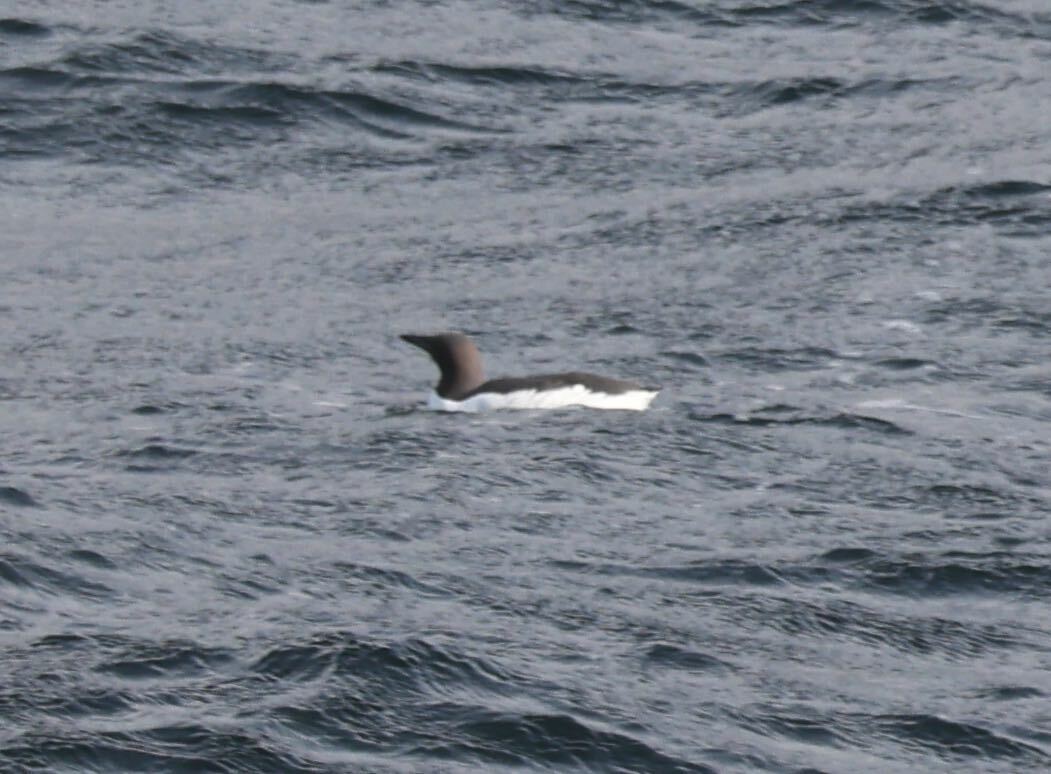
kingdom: Animalia
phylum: Chordata
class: Aves
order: Charadriiformes
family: Alcidae
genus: Uria
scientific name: Uria aalge
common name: Common murre
